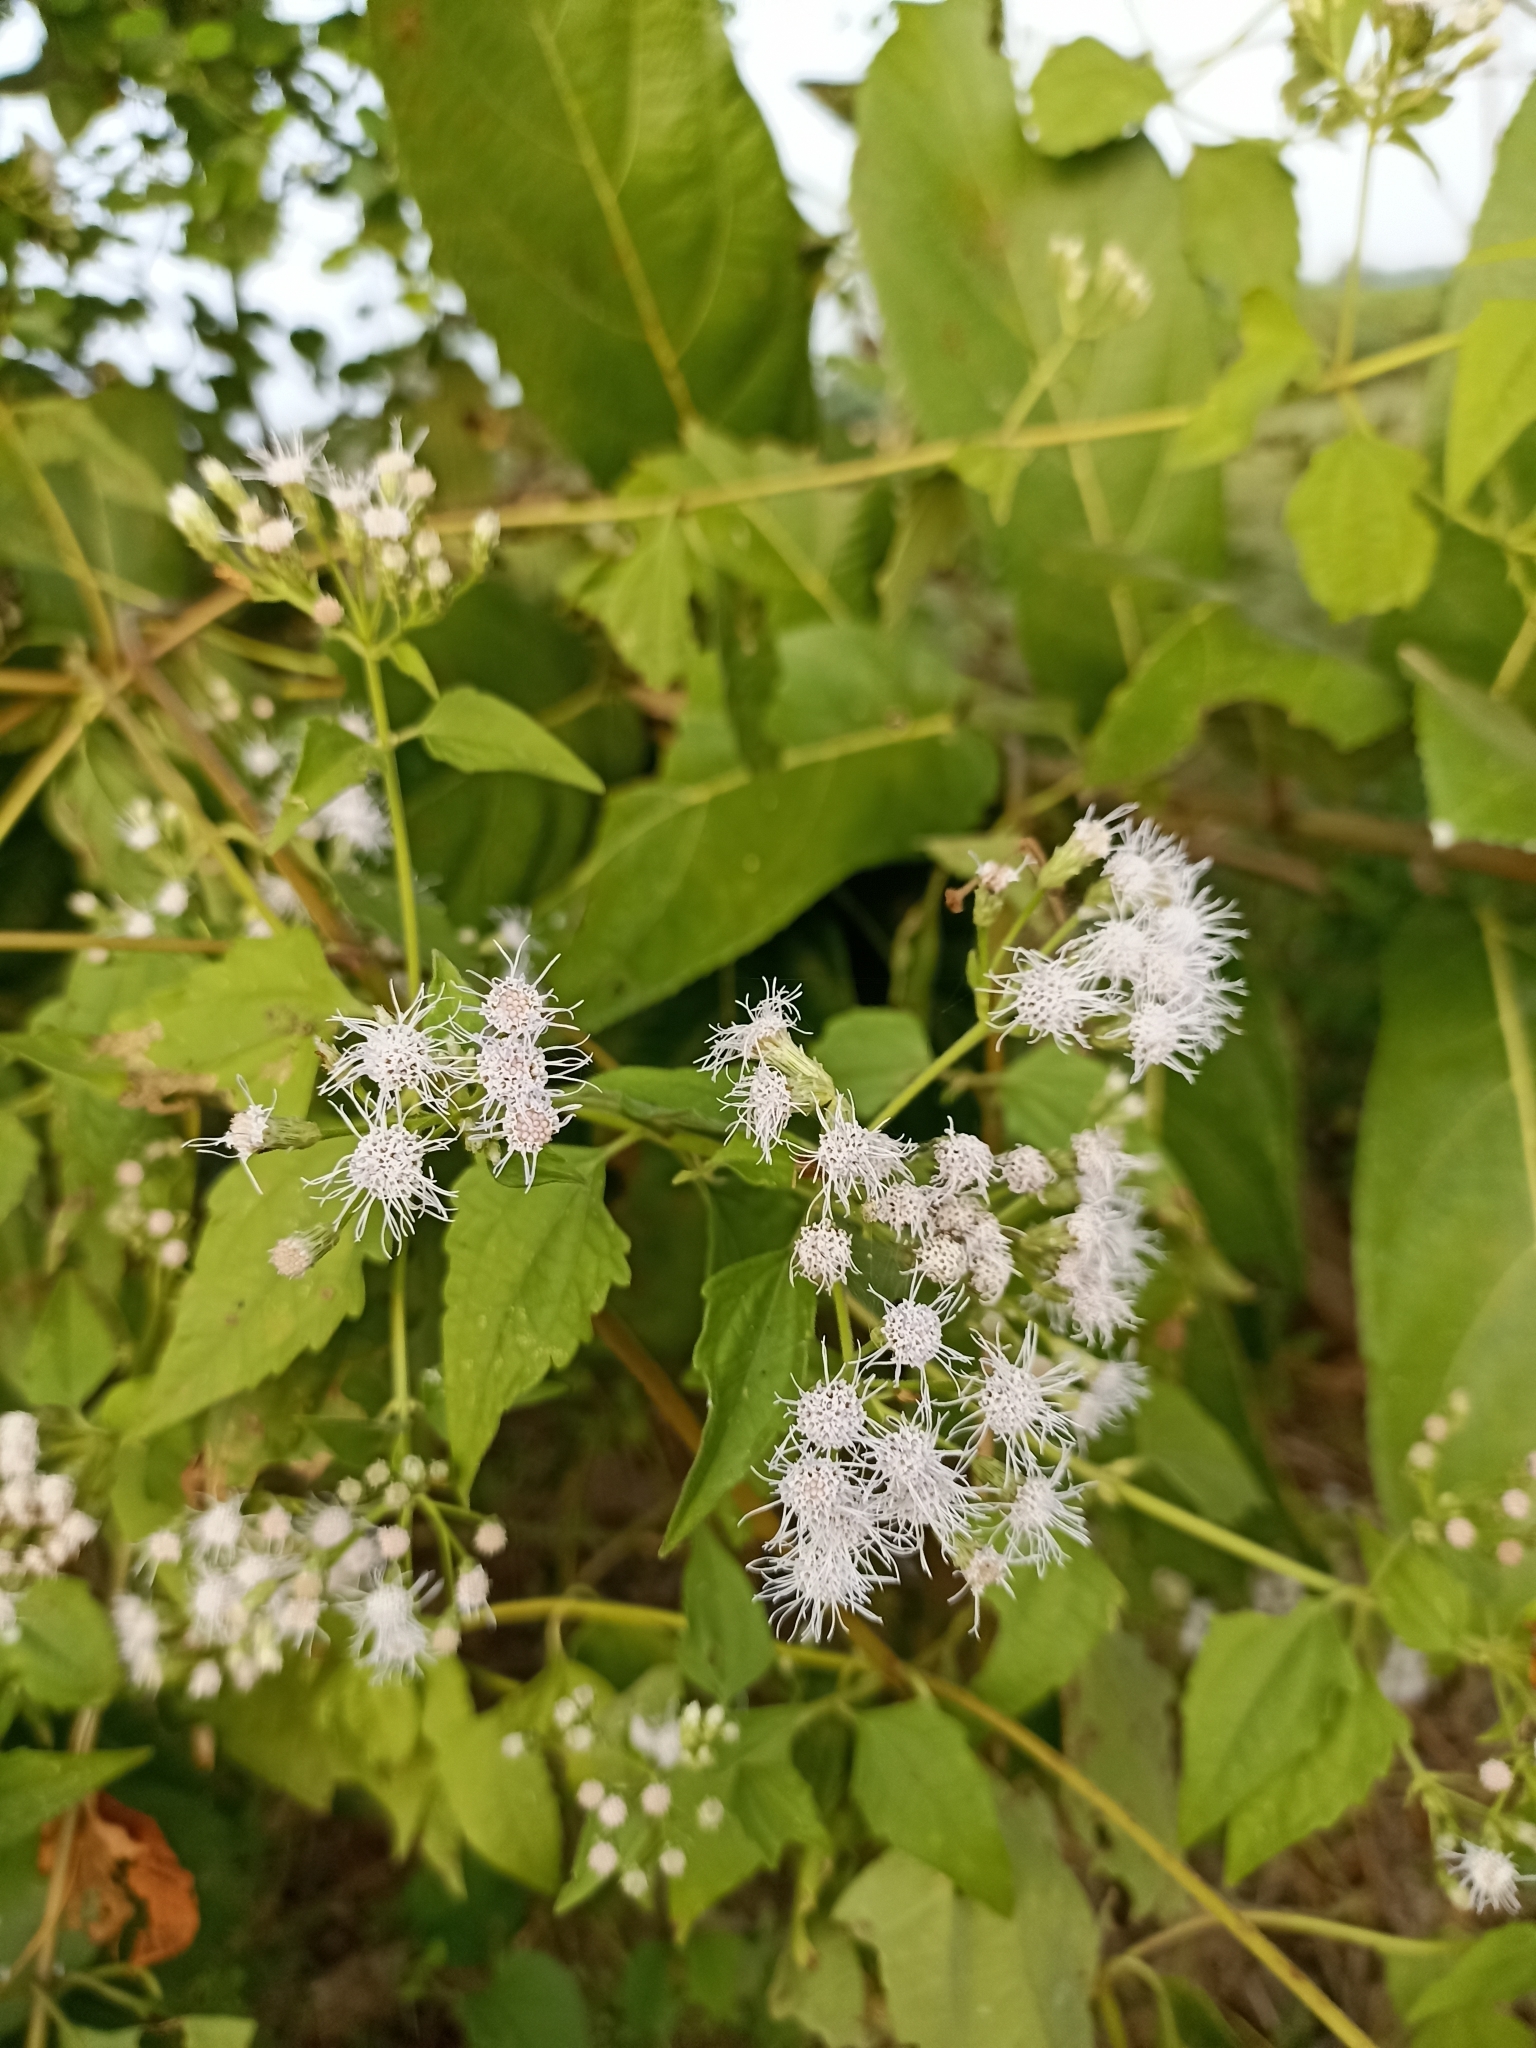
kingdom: Plantae
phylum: Tracheophyta
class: Magnoliopsida
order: Asterales
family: Asteraceae
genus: Chromolaena
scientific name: Chromolaena odorata
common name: Siamweed
